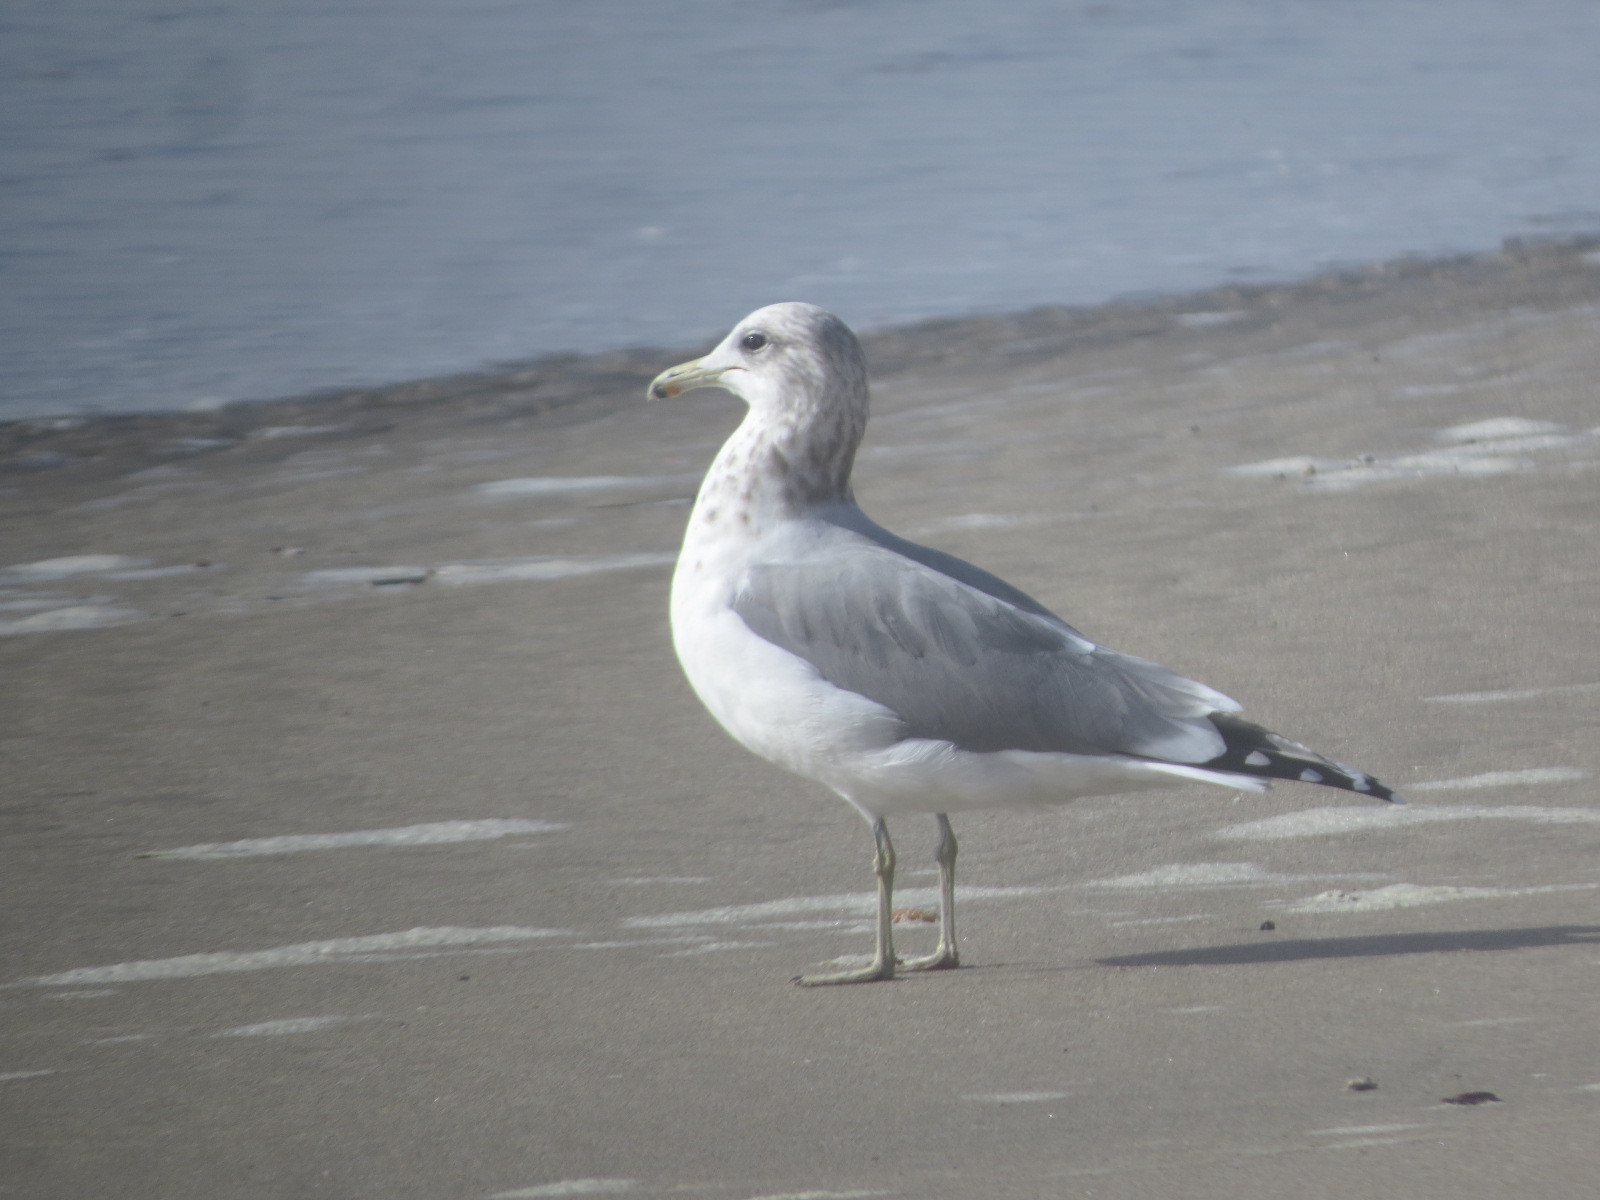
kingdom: Animalia
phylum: Chordata
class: Aves
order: Charadriiformes
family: Laridae
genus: Larus
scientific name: Larus californicus
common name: California gull
